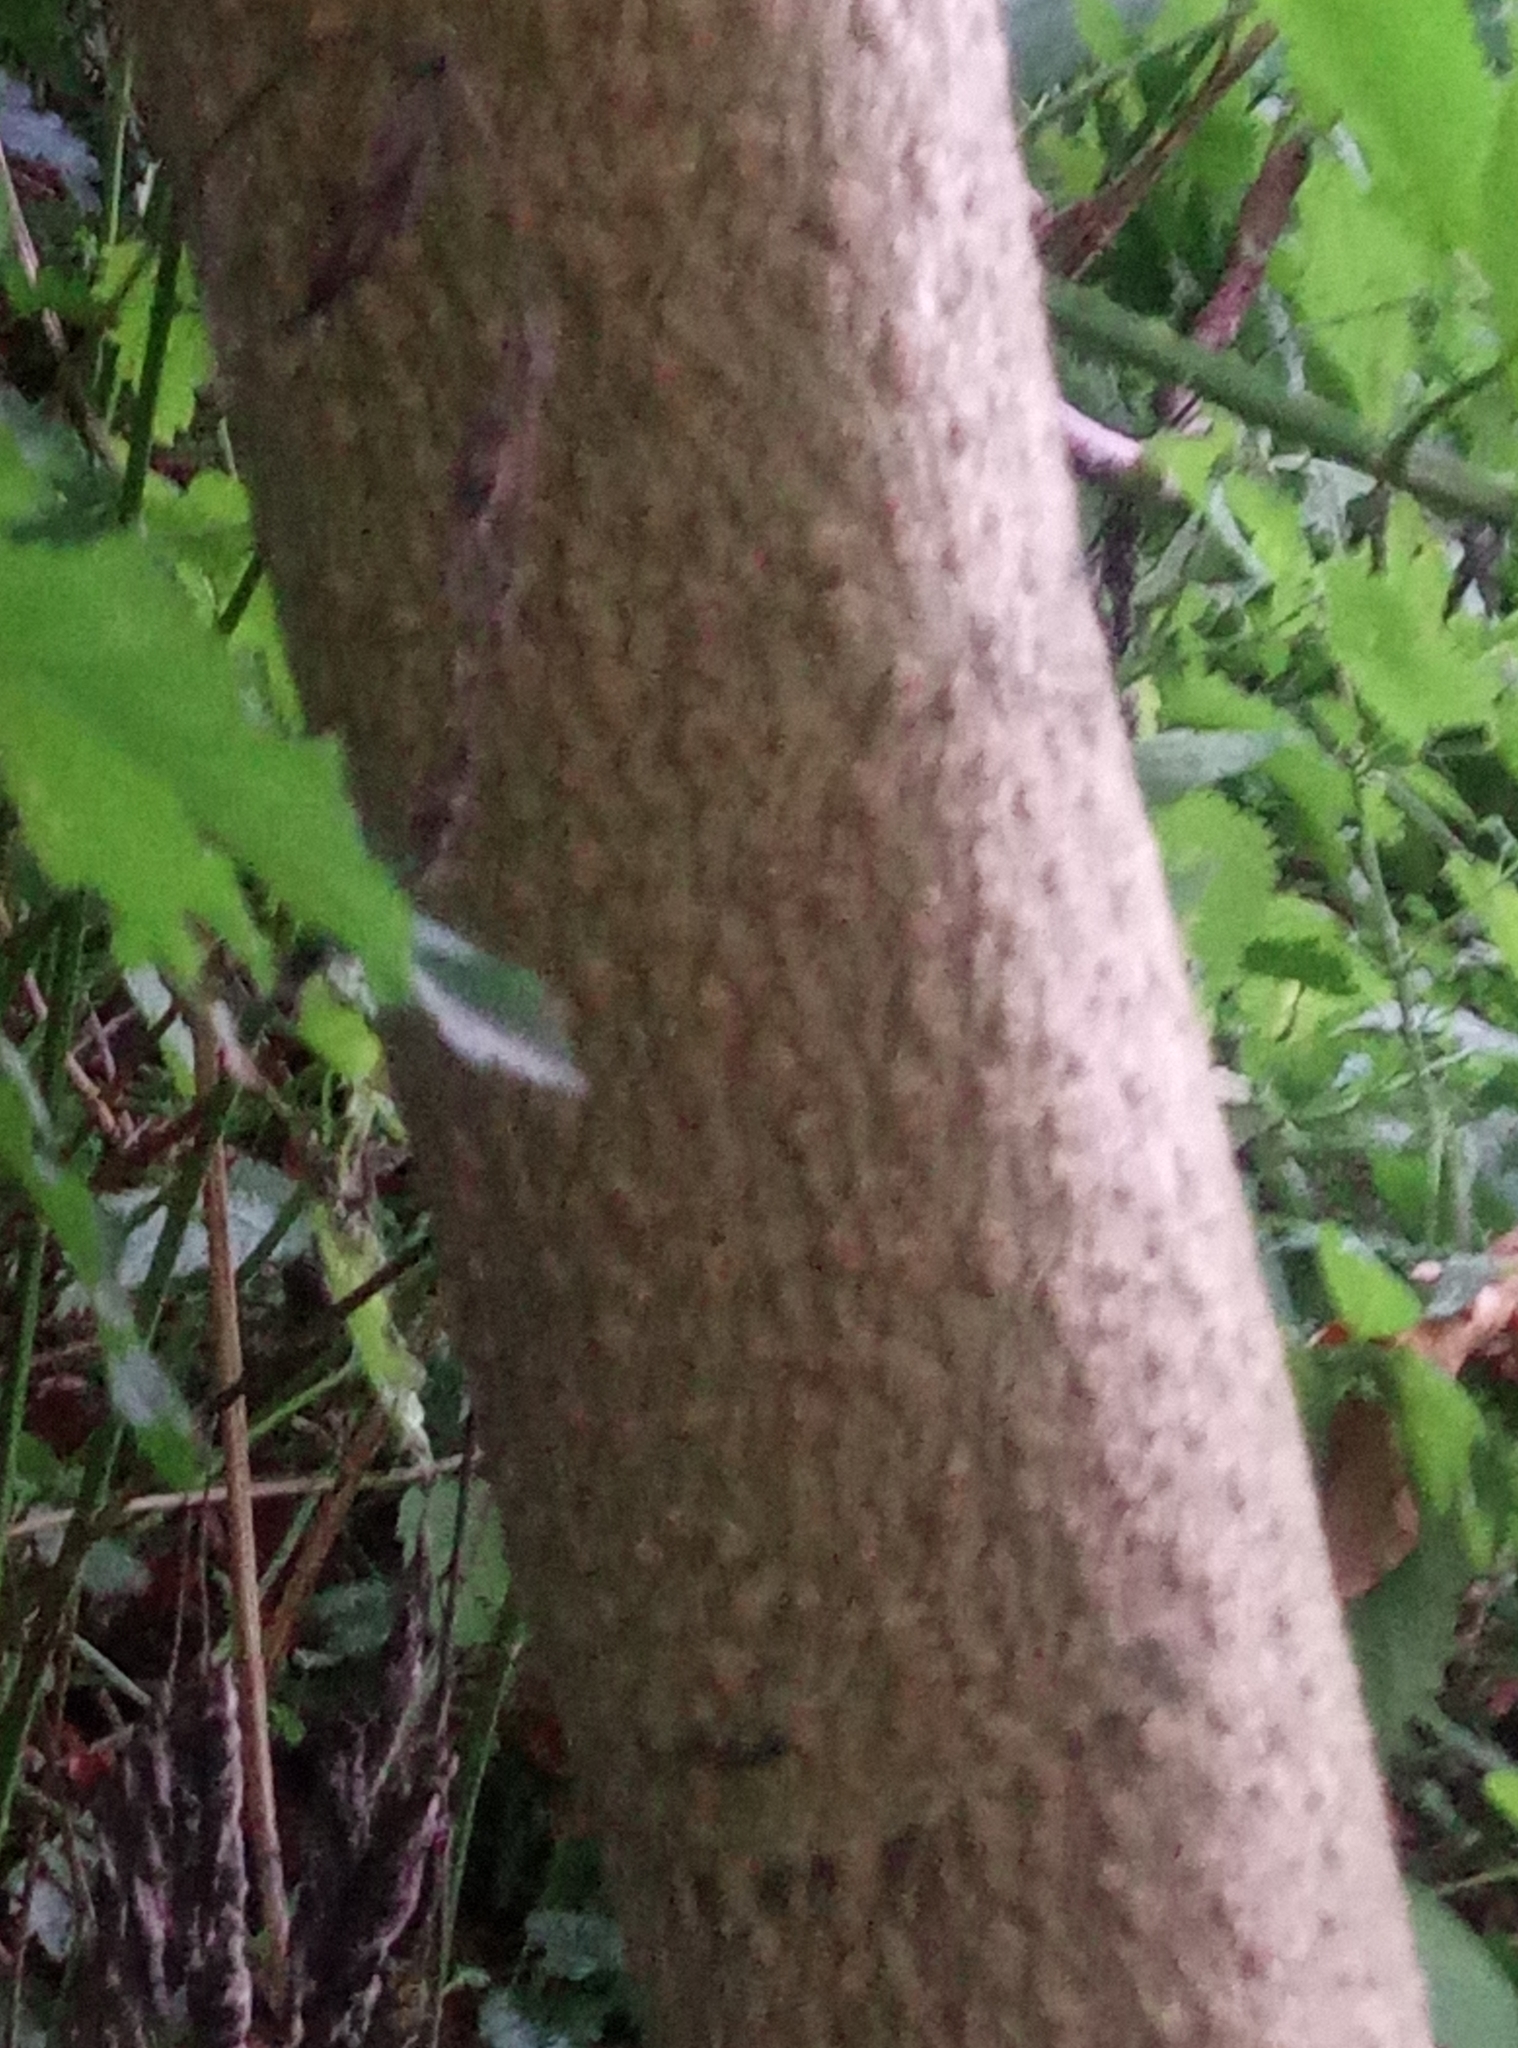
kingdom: Plantae
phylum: Tracheophyta
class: Magnoliopsida
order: Sapindales
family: Simaroubaceae
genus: Ailanthus
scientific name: Ailanthus altissima
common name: Tree-of-heaven
